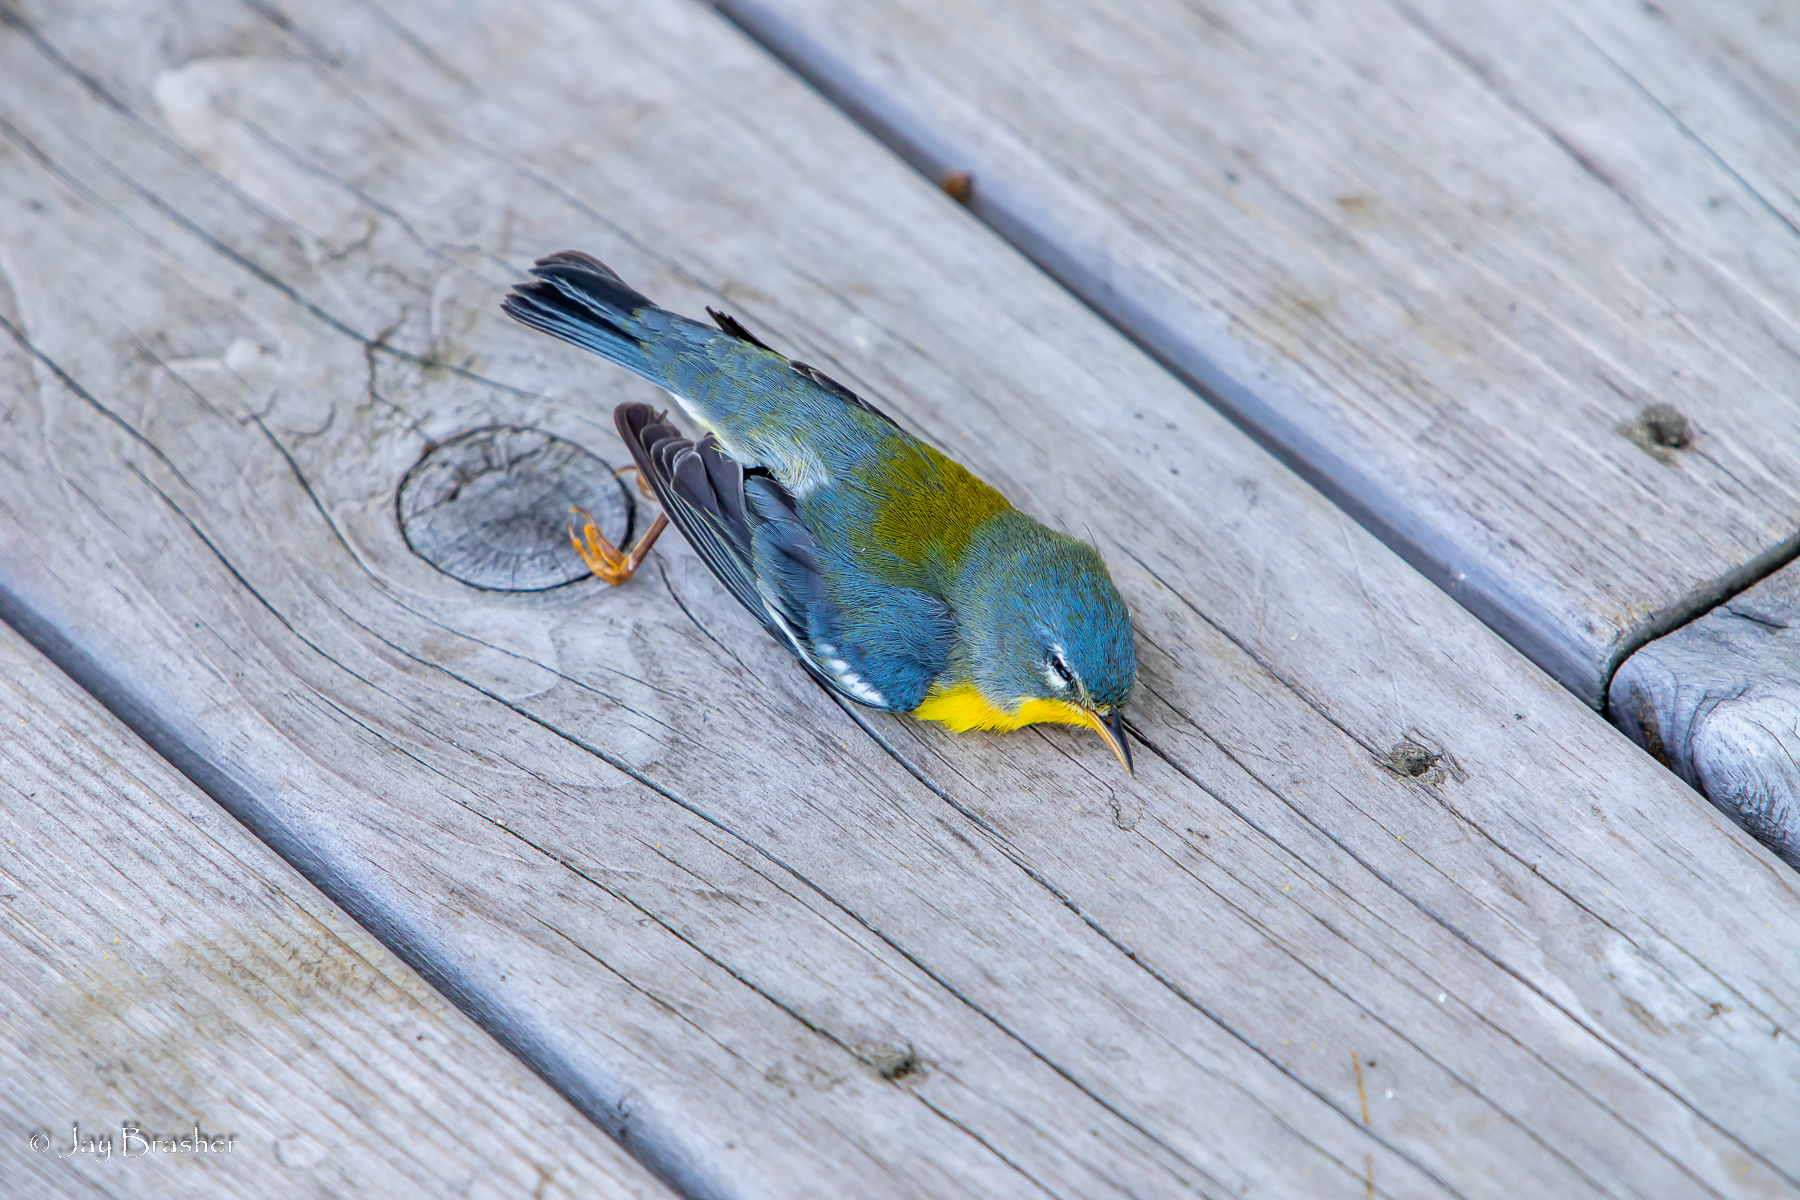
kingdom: Animalia
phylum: Chordata
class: Aves
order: Passeriformes
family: Parulidae
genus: Setophaga
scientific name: Setophaga americana
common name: Northern parula
